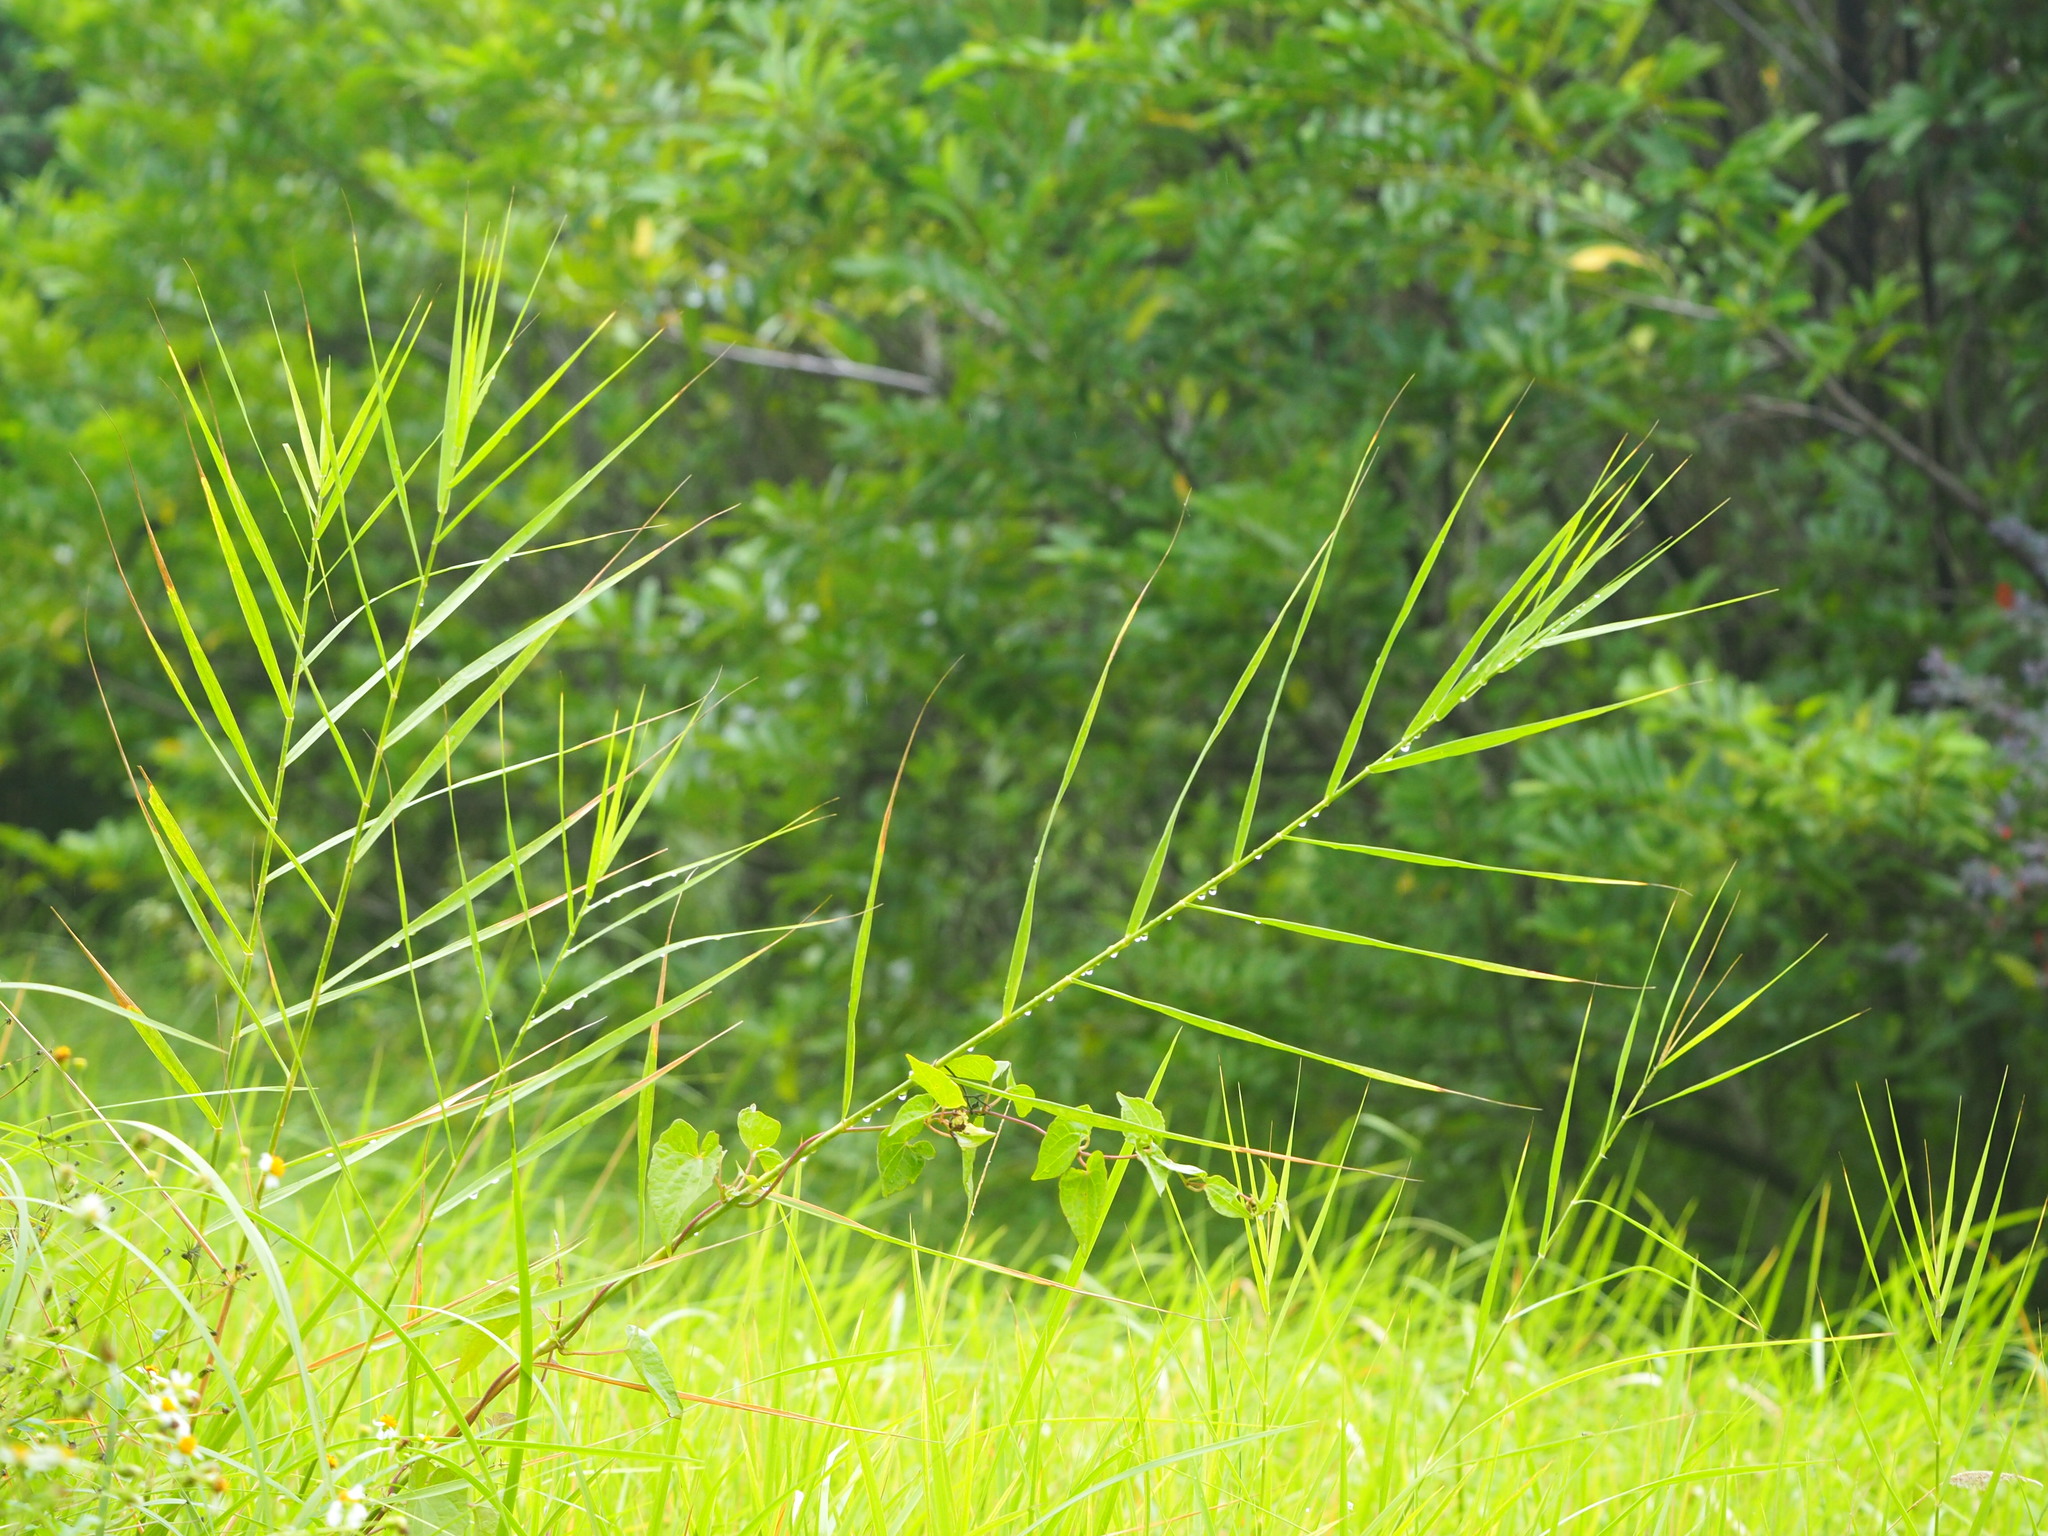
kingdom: Plantae
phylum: Tracheophyta
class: Liliopsida
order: Poales
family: Poaceae
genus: Phragmites
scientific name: Phragmites karka
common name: Tropical reed
